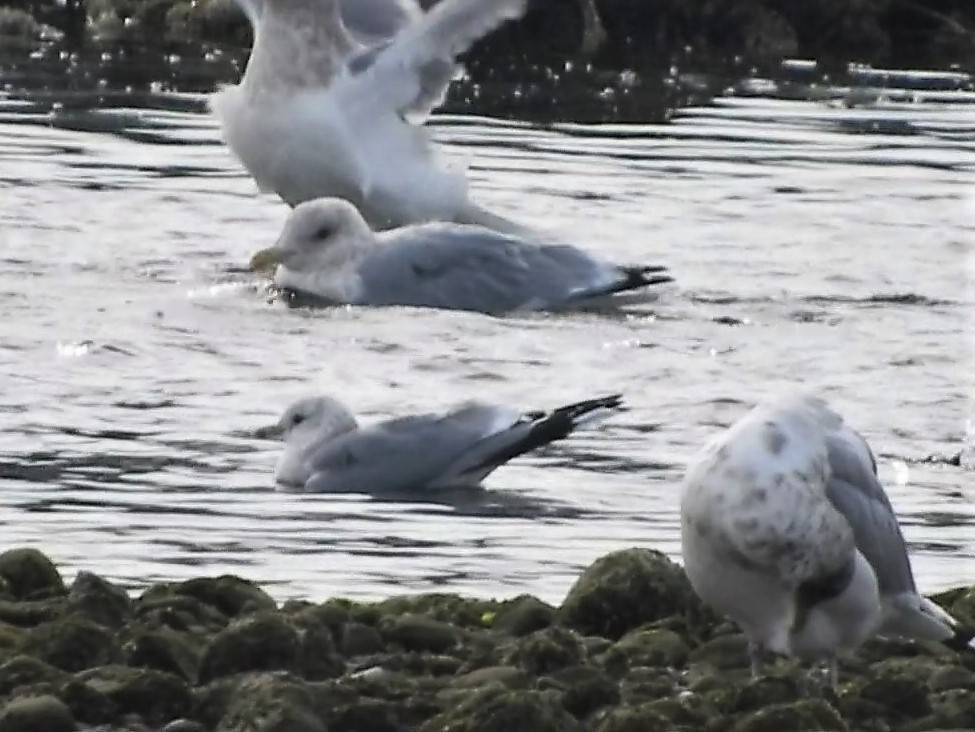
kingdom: Animalia
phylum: Chordata
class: Aves
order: Charadriiformes
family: Laridae
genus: Larus
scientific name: Larus brachyrhynchus
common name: Short-billed gull
